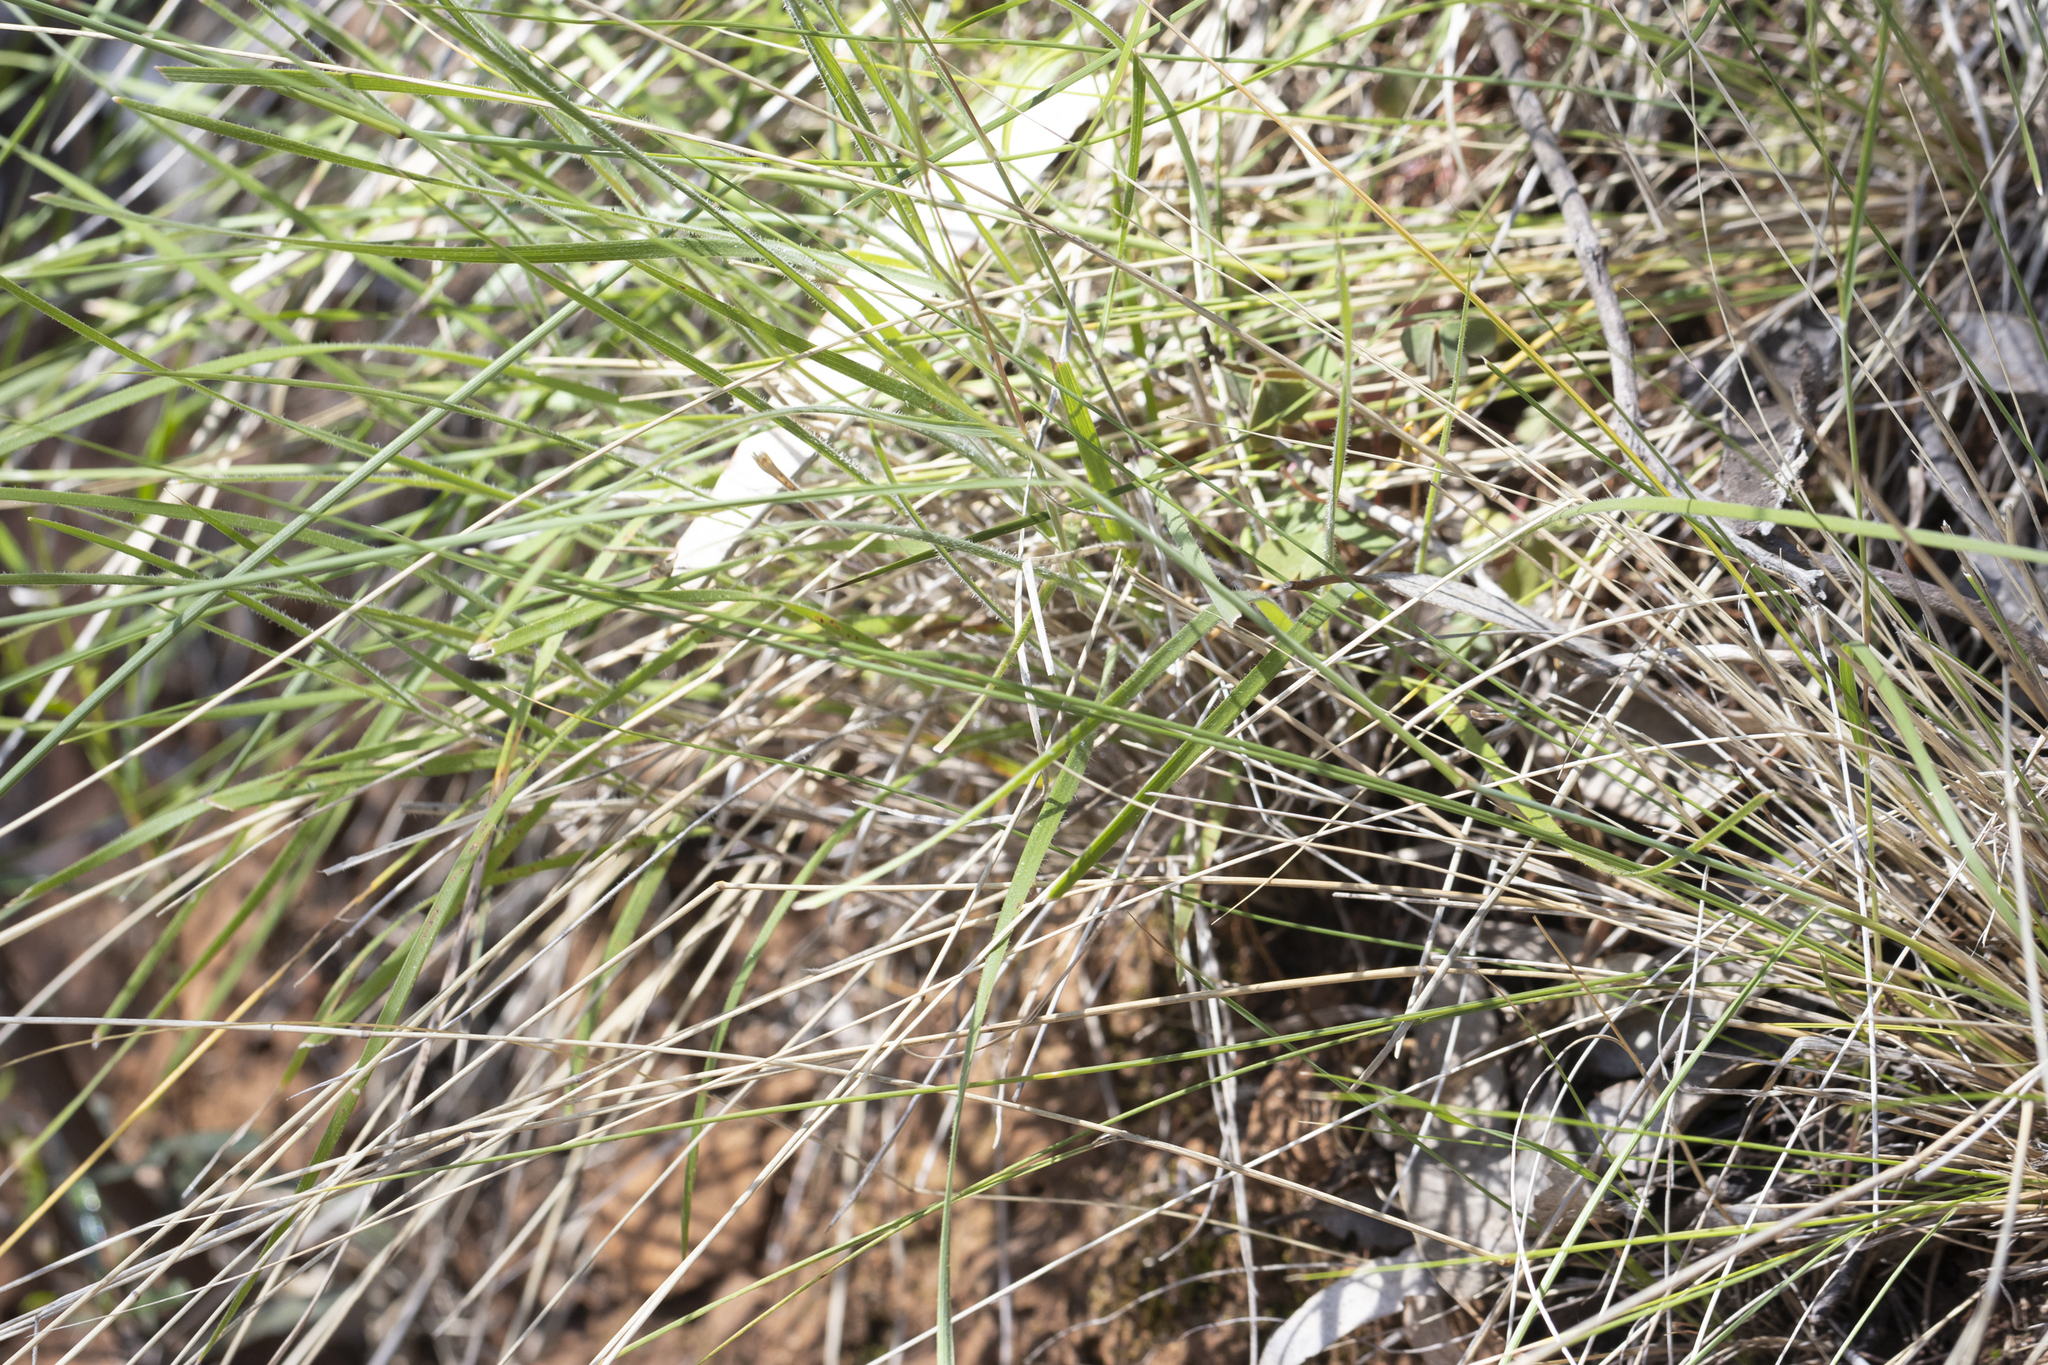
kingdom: Plantae
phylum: Tracheophyta
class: Liliopsida
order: Poales
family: Poaceae
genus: Austrostipa
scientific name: Austrostipa setacea
